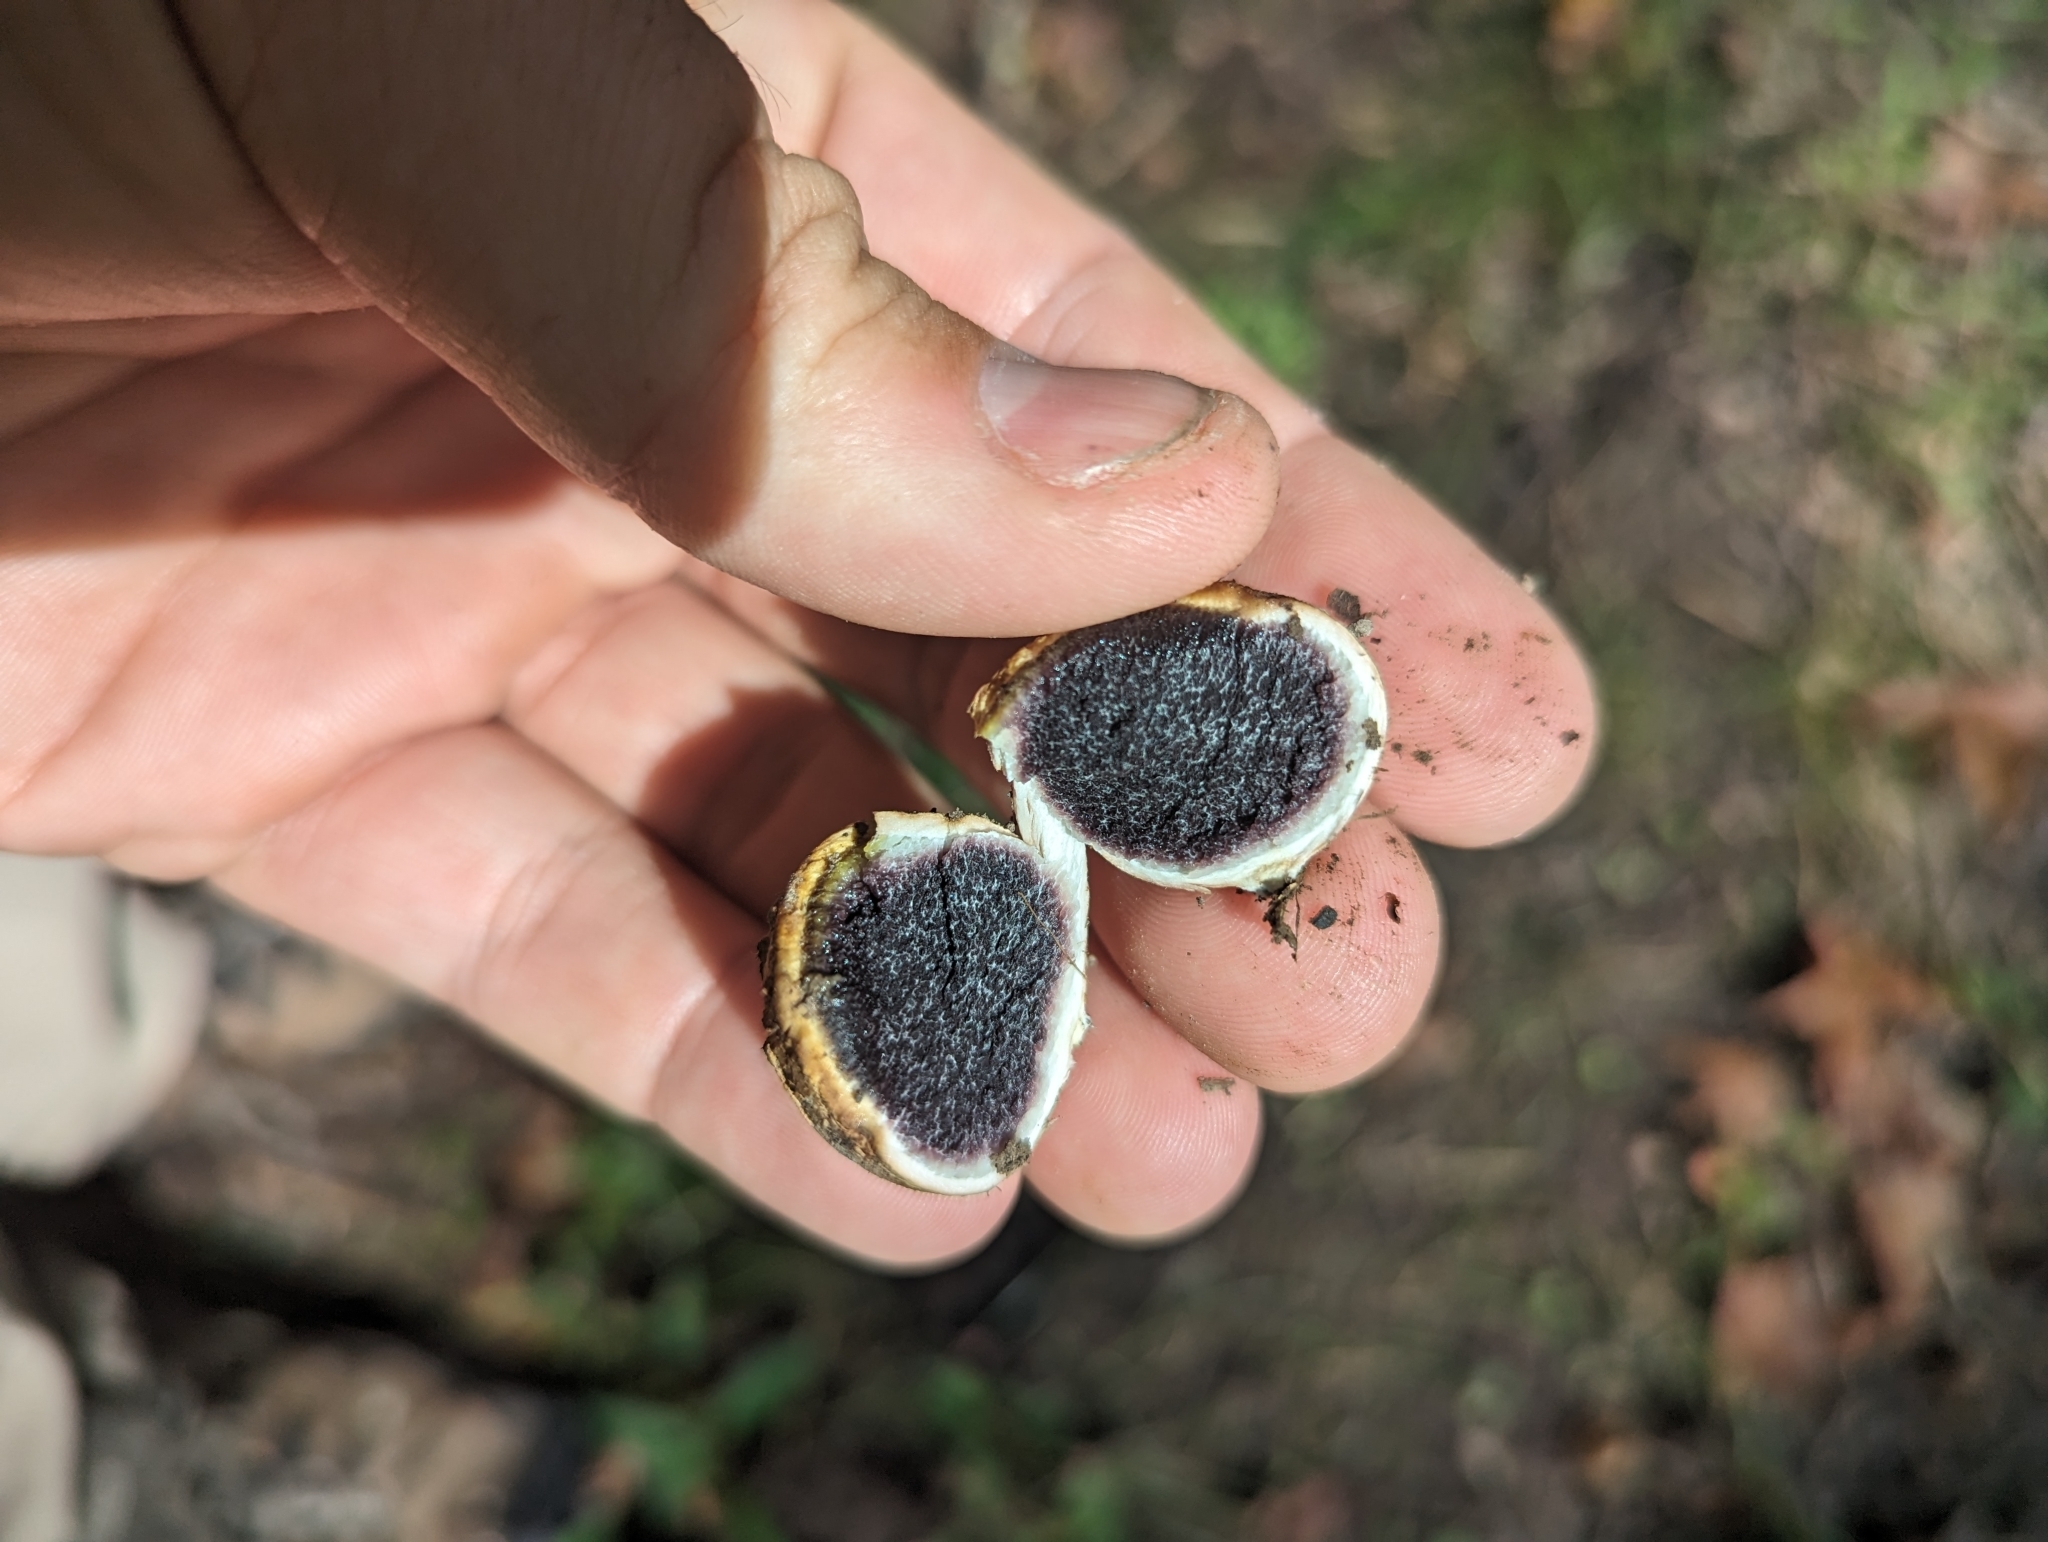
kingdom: Fungi
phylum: Basidiomycota
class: Agaricomycetes
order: Boletales
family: Sclerodermataceae
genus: Scleroderma
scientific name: Scleroderma citrinum
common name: Common earthball
